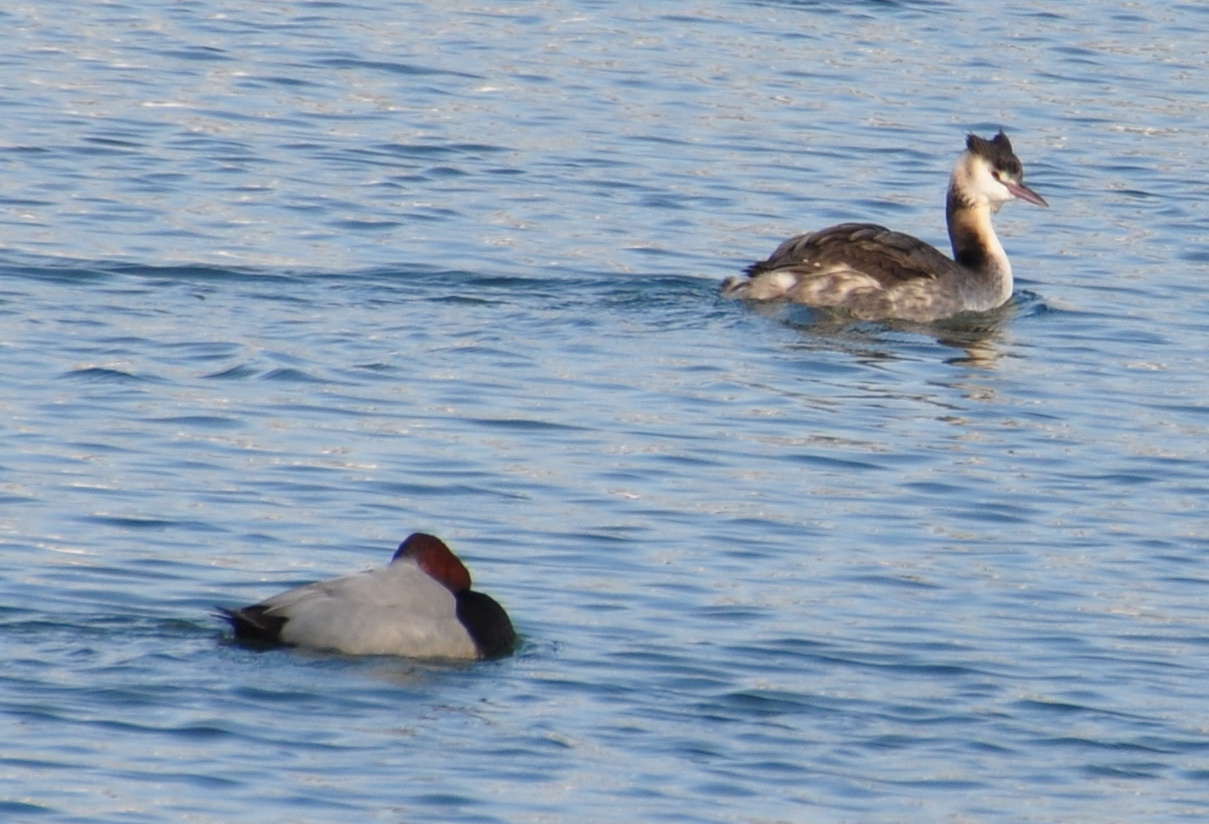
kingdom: Animalia
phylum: Chordata
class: Aves
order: Podicipediformes
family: Podicipedidae
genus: Podiceps
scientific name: Podiceps cristatus
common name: Great crested grebe
